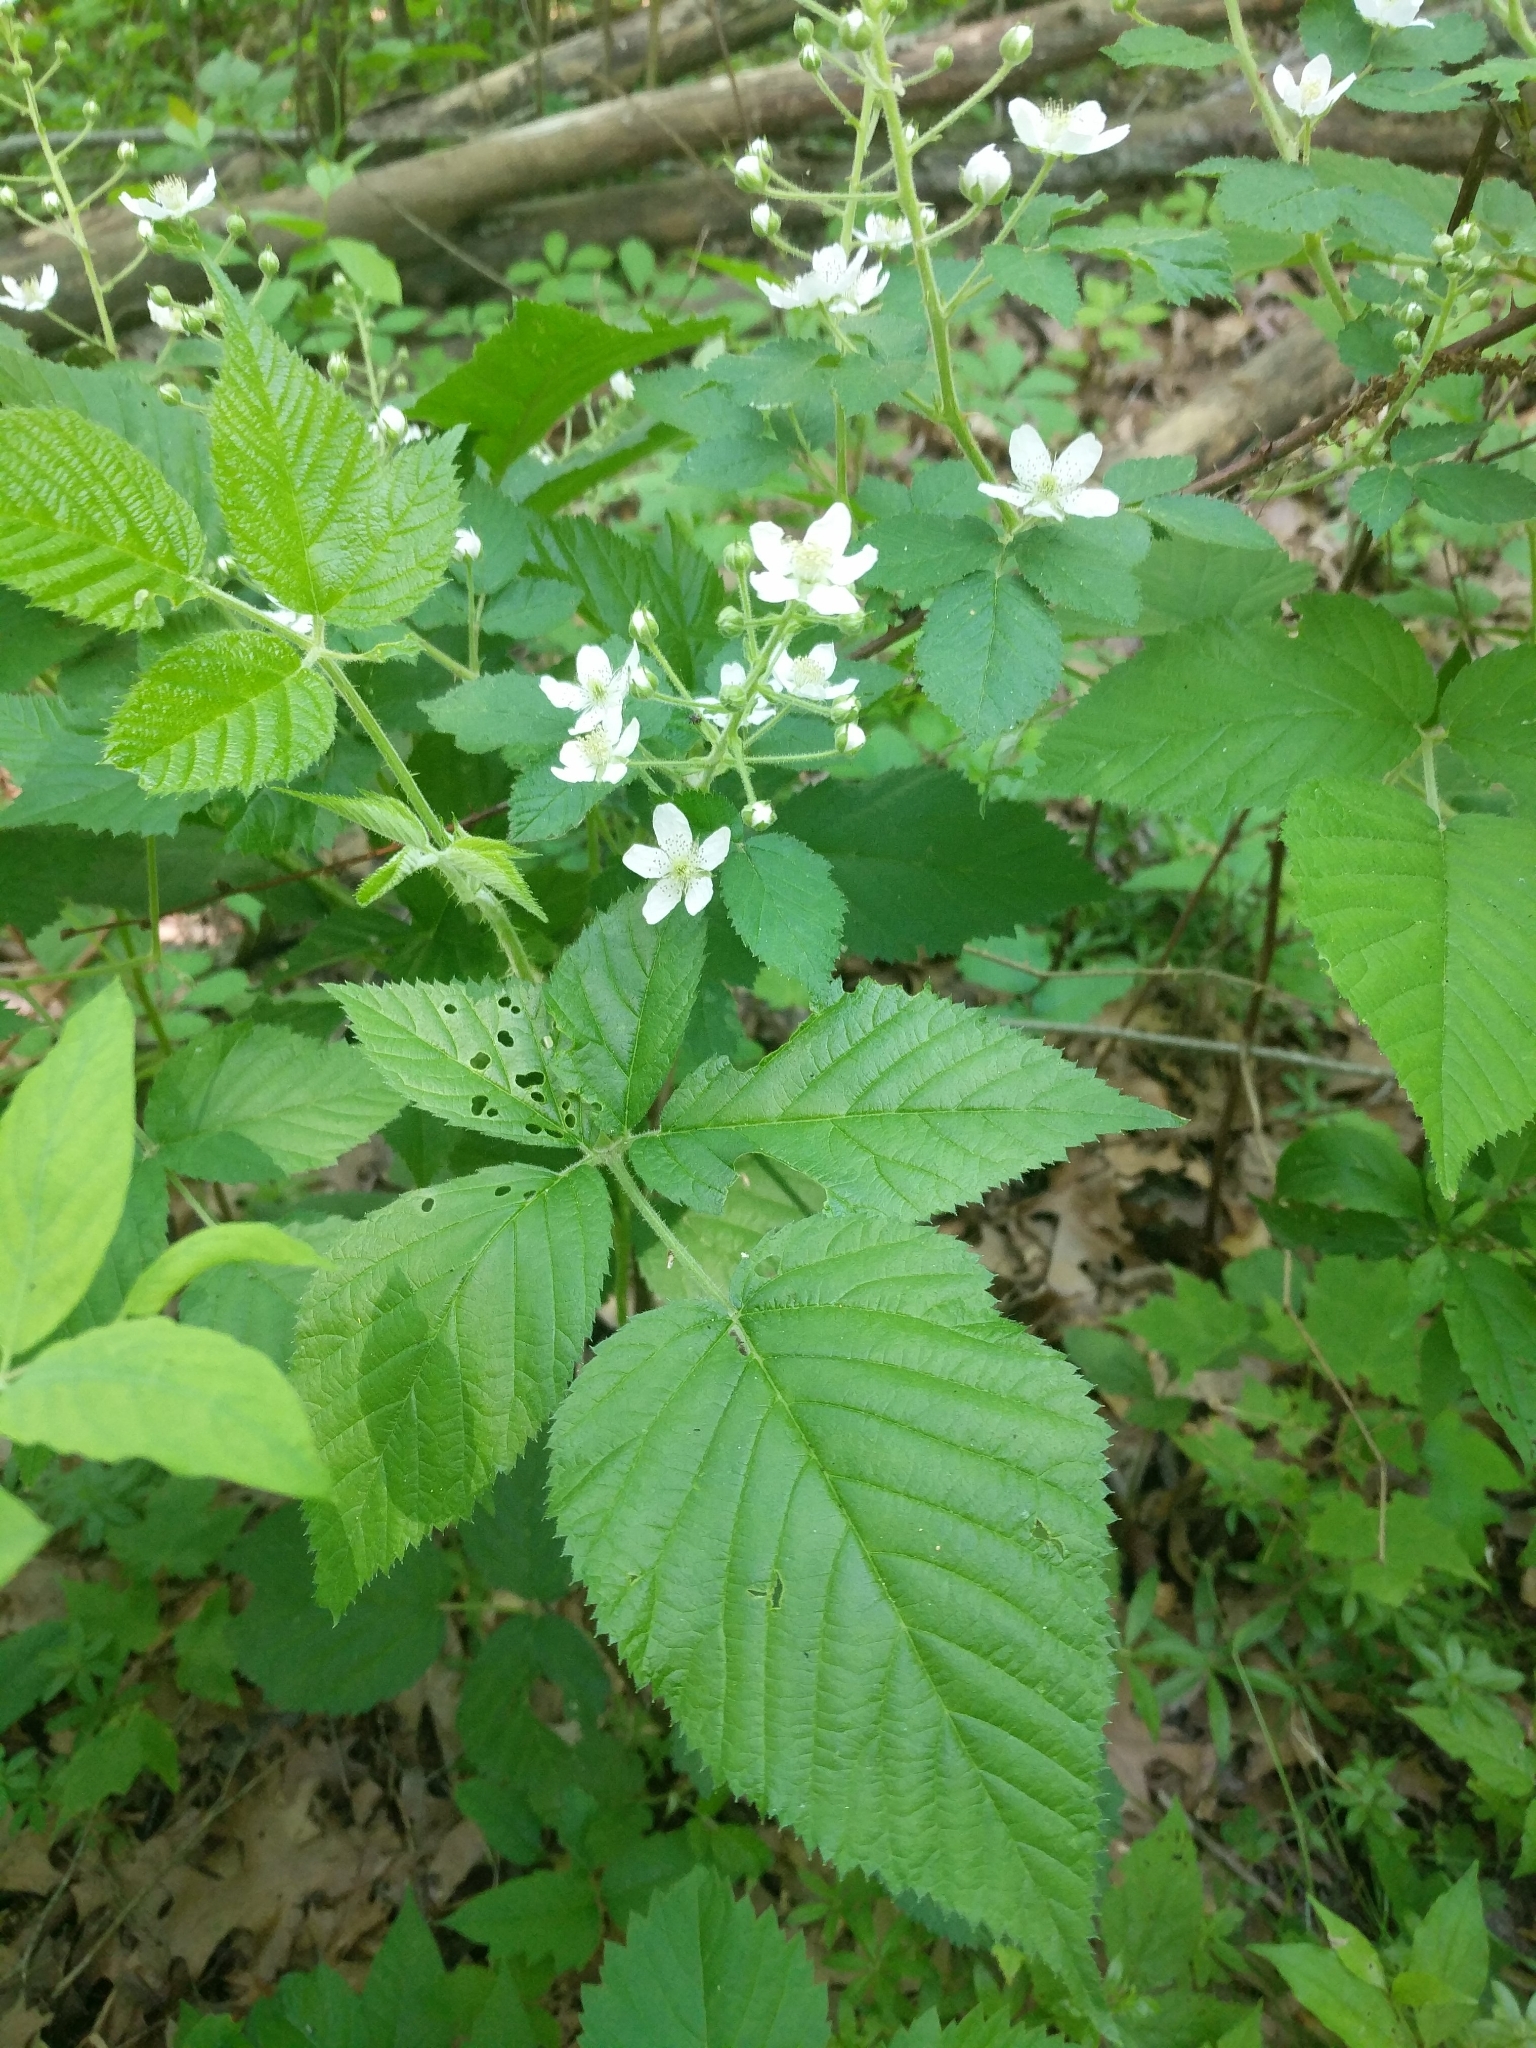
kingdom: Plantae
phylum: Tracheophyta
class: Magnoliopsida
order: Rosales
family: Rosaceae
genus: Rubus
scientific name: Rubus allegheniensis
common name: Allegheny blackberry
